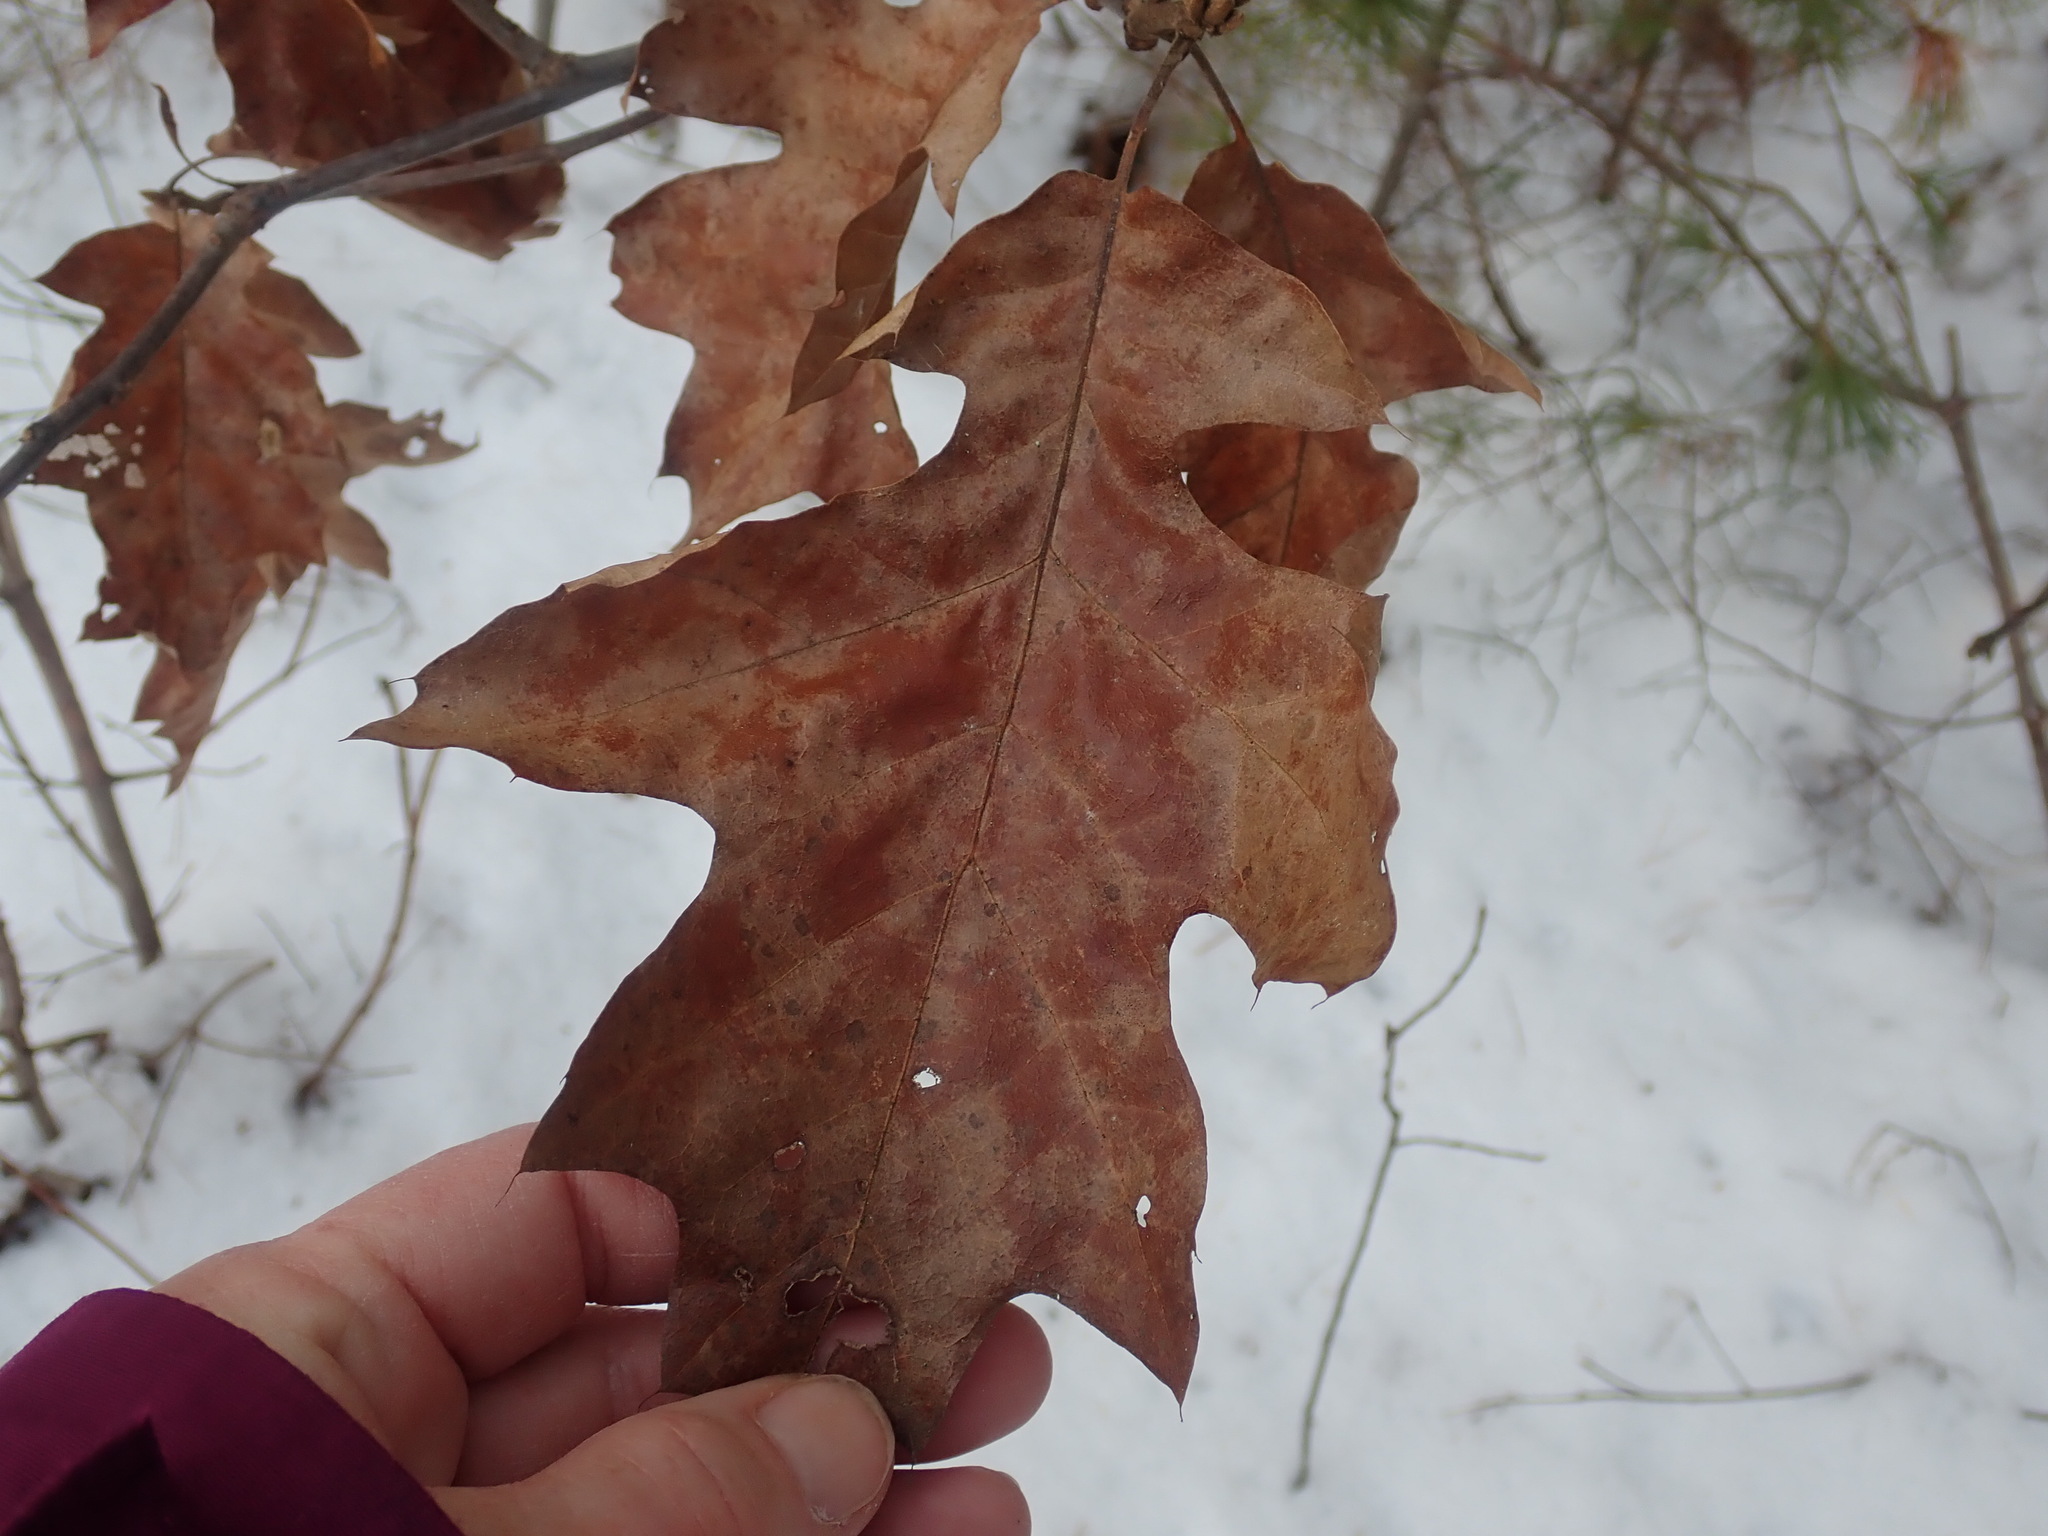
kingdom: Plantae
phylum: Tracheophyta
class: Magnoliopsida
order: Fagales
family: Fagaceae
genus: Quercus
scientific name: Quercus velutina
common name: Black oak
